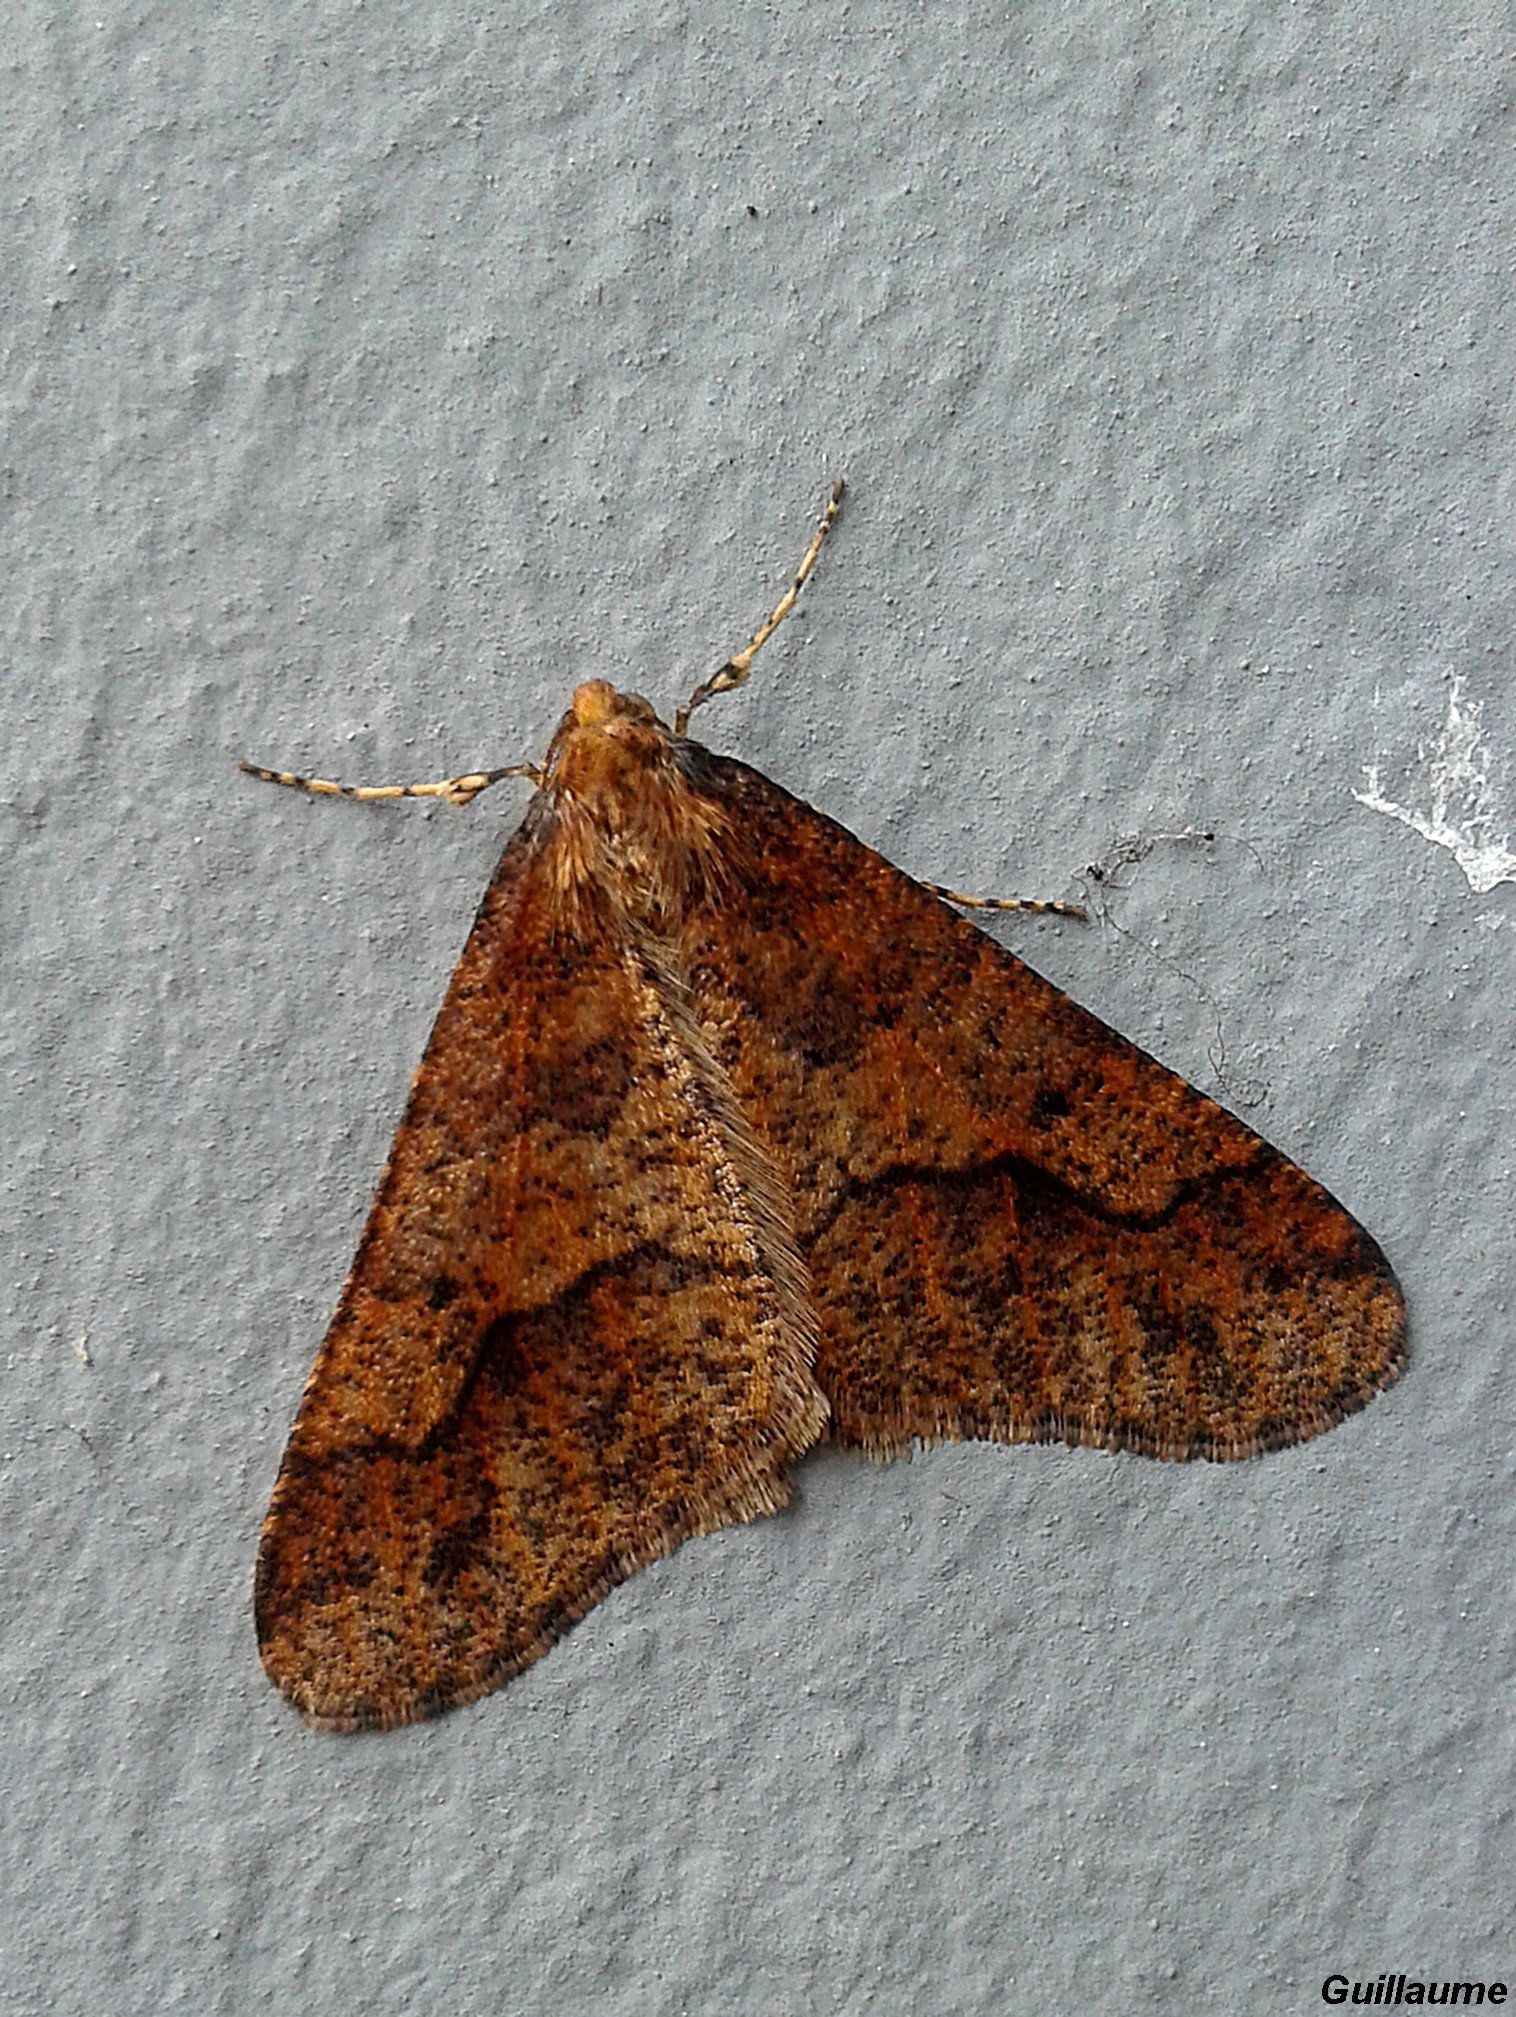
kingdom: Animalia
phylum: Arthropoda
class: Insecta
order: Lepidoptera
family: Geometridae
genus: Erannis
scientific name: Erannis defoliaria
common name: Mottled umber
